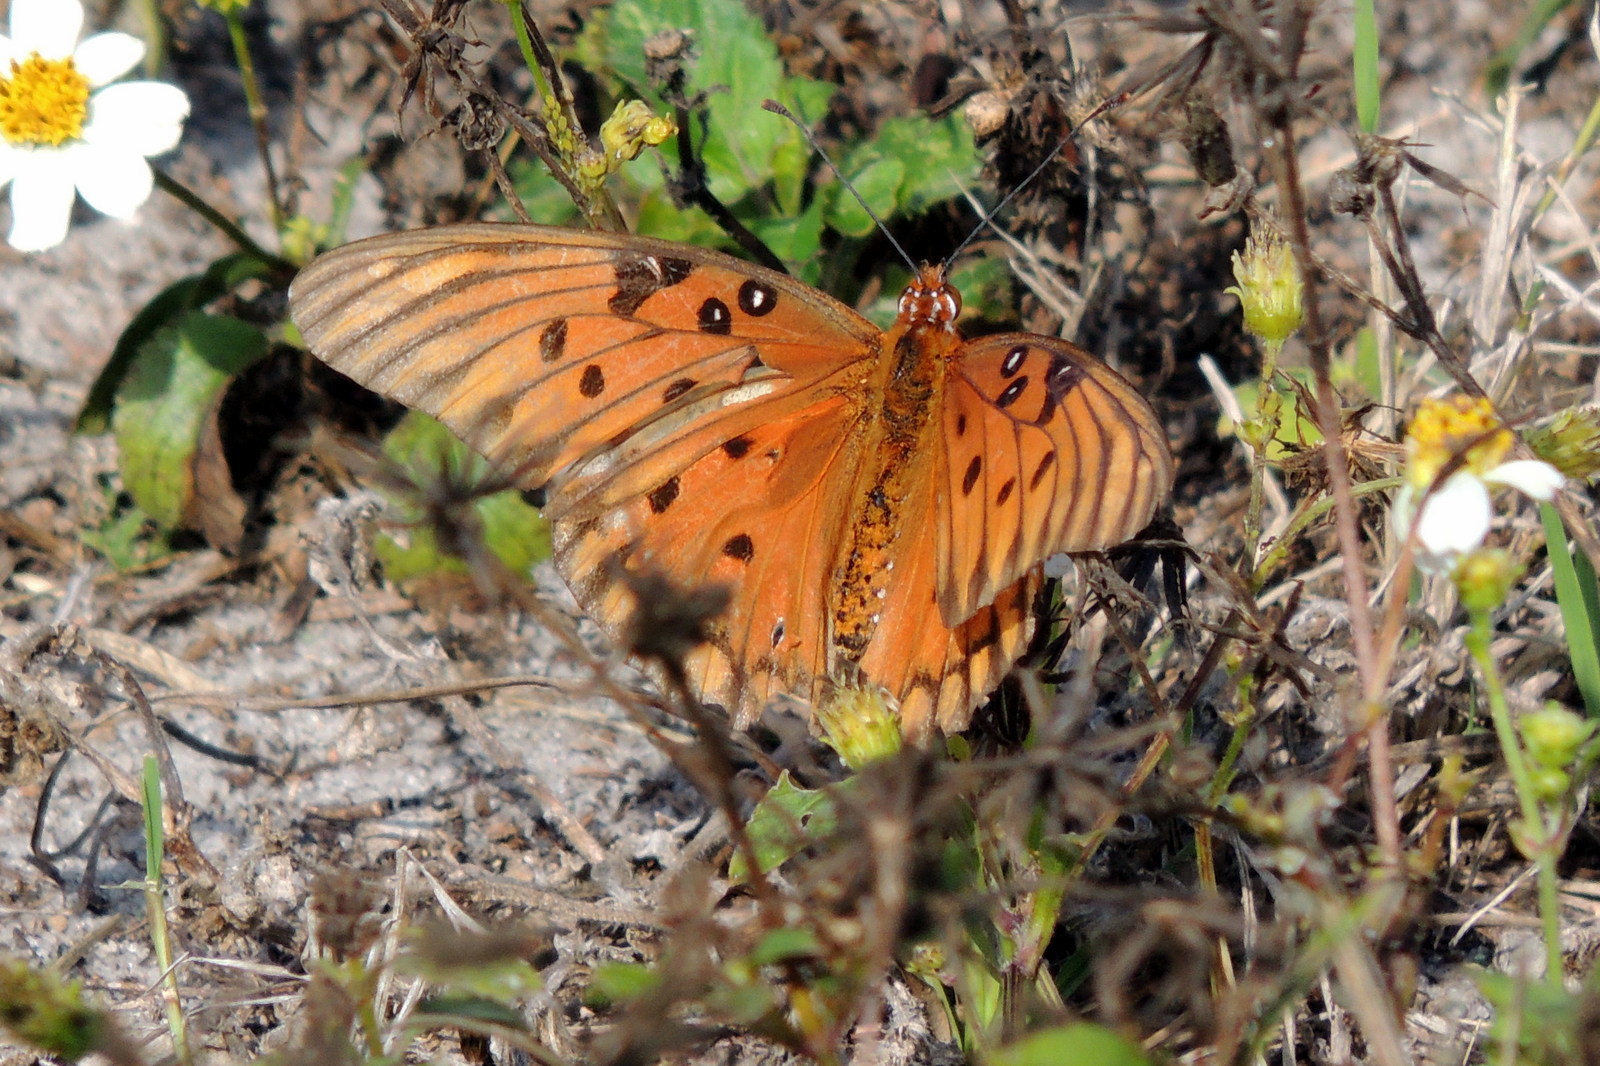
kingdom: Animalia
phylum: Arthropoda
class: Insecta
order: Lepidoptera
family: Nymphalidae
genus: Dione
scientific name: Dione vanillae
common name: Gulf fritillary
